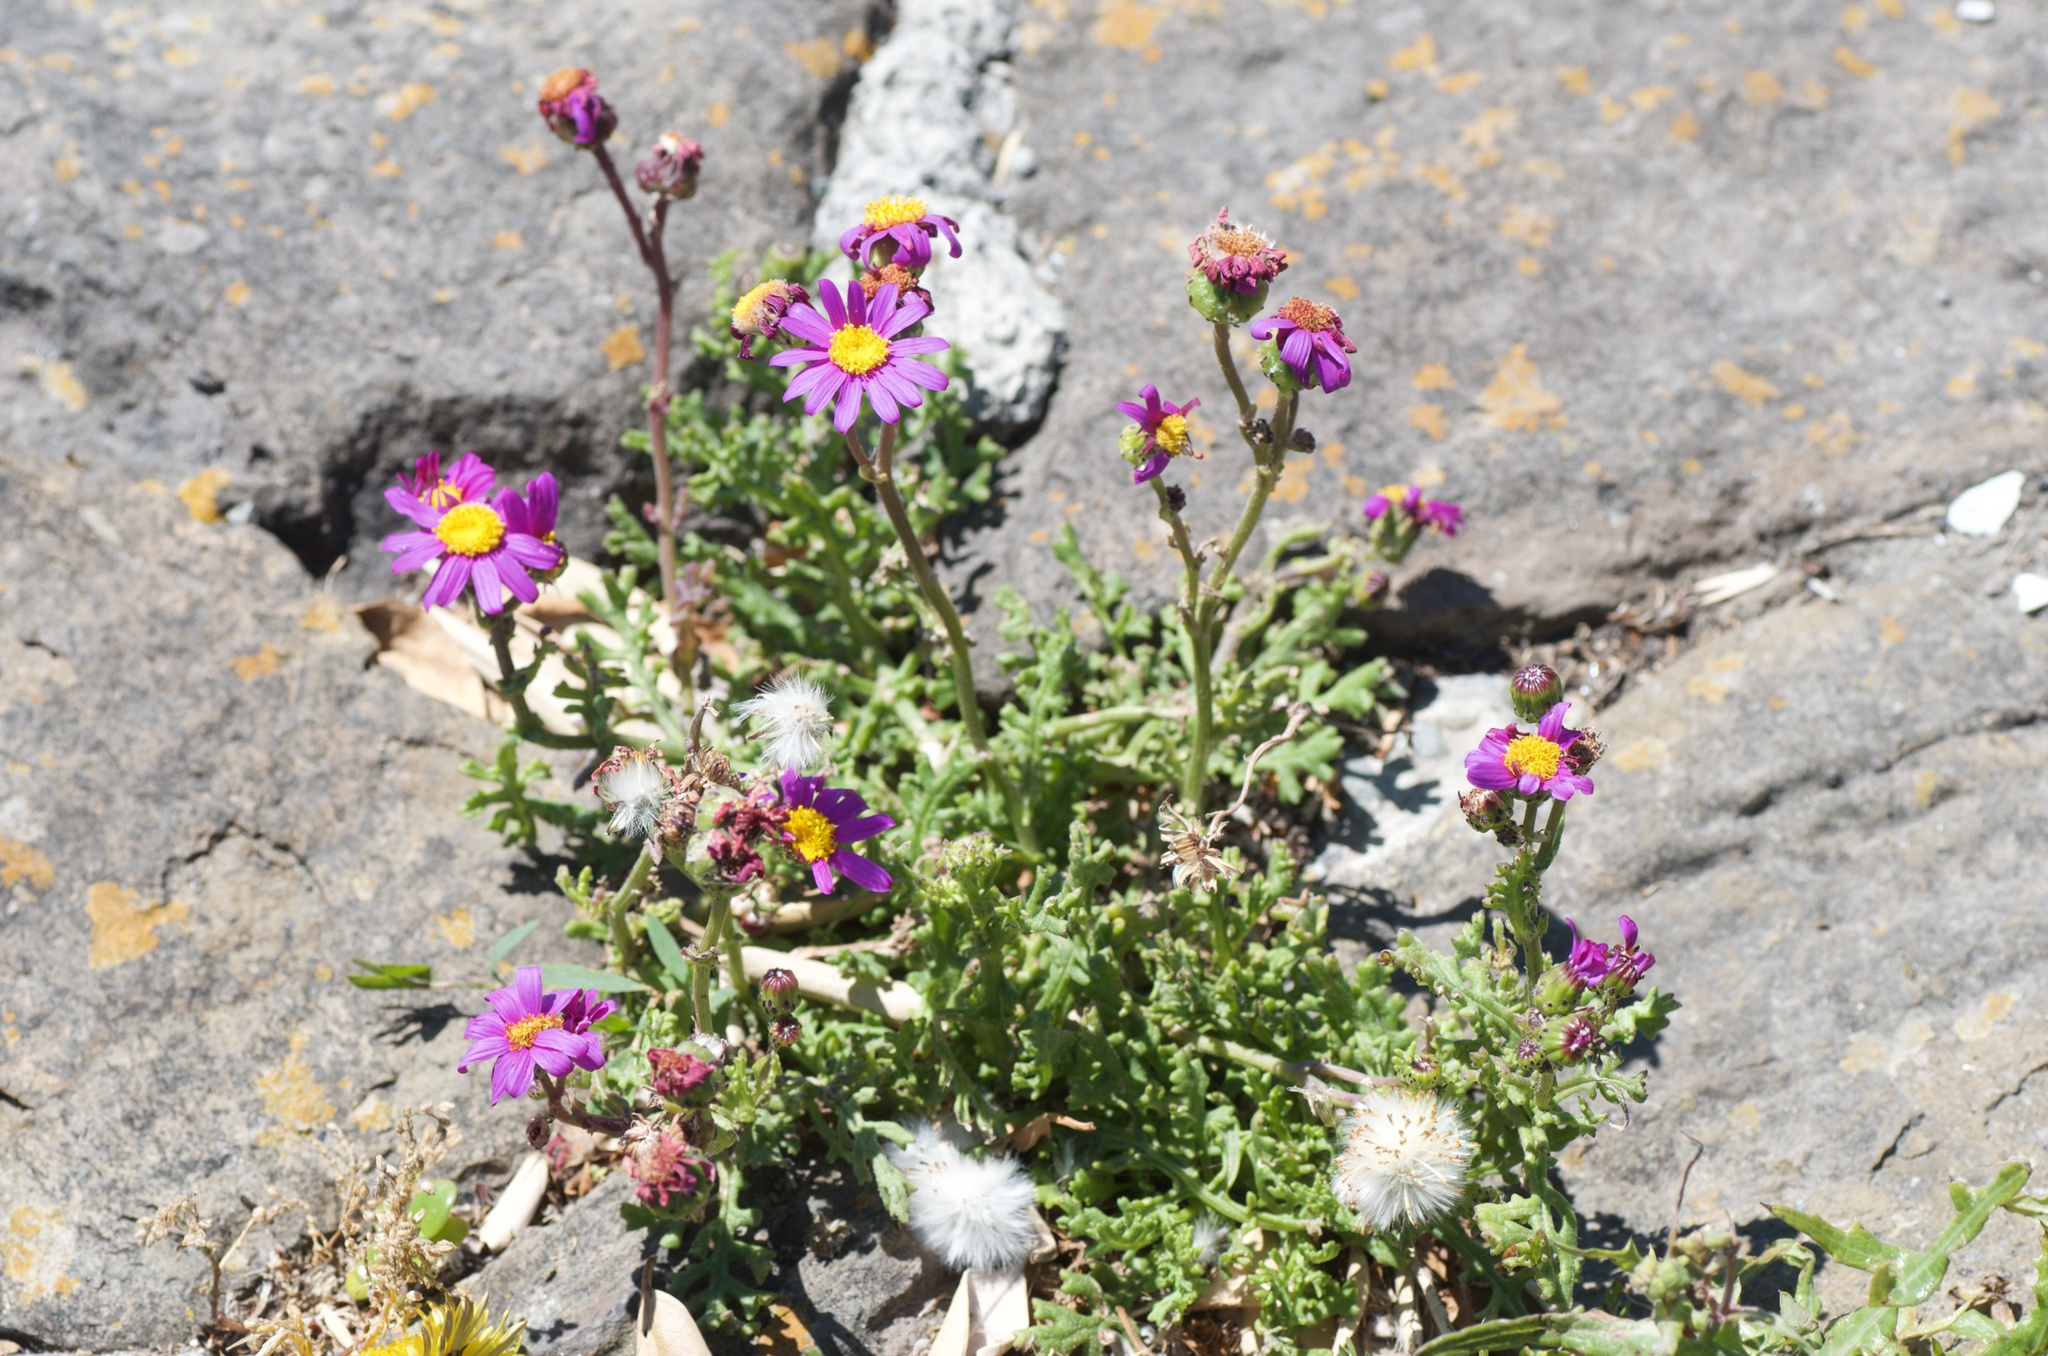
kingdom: Plantae
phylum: Tracheophyta
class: Magnoliopsida
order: Asterales
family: Asteraceae
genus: Senecio
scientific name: Senecio elegans
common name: Purple groundsel
